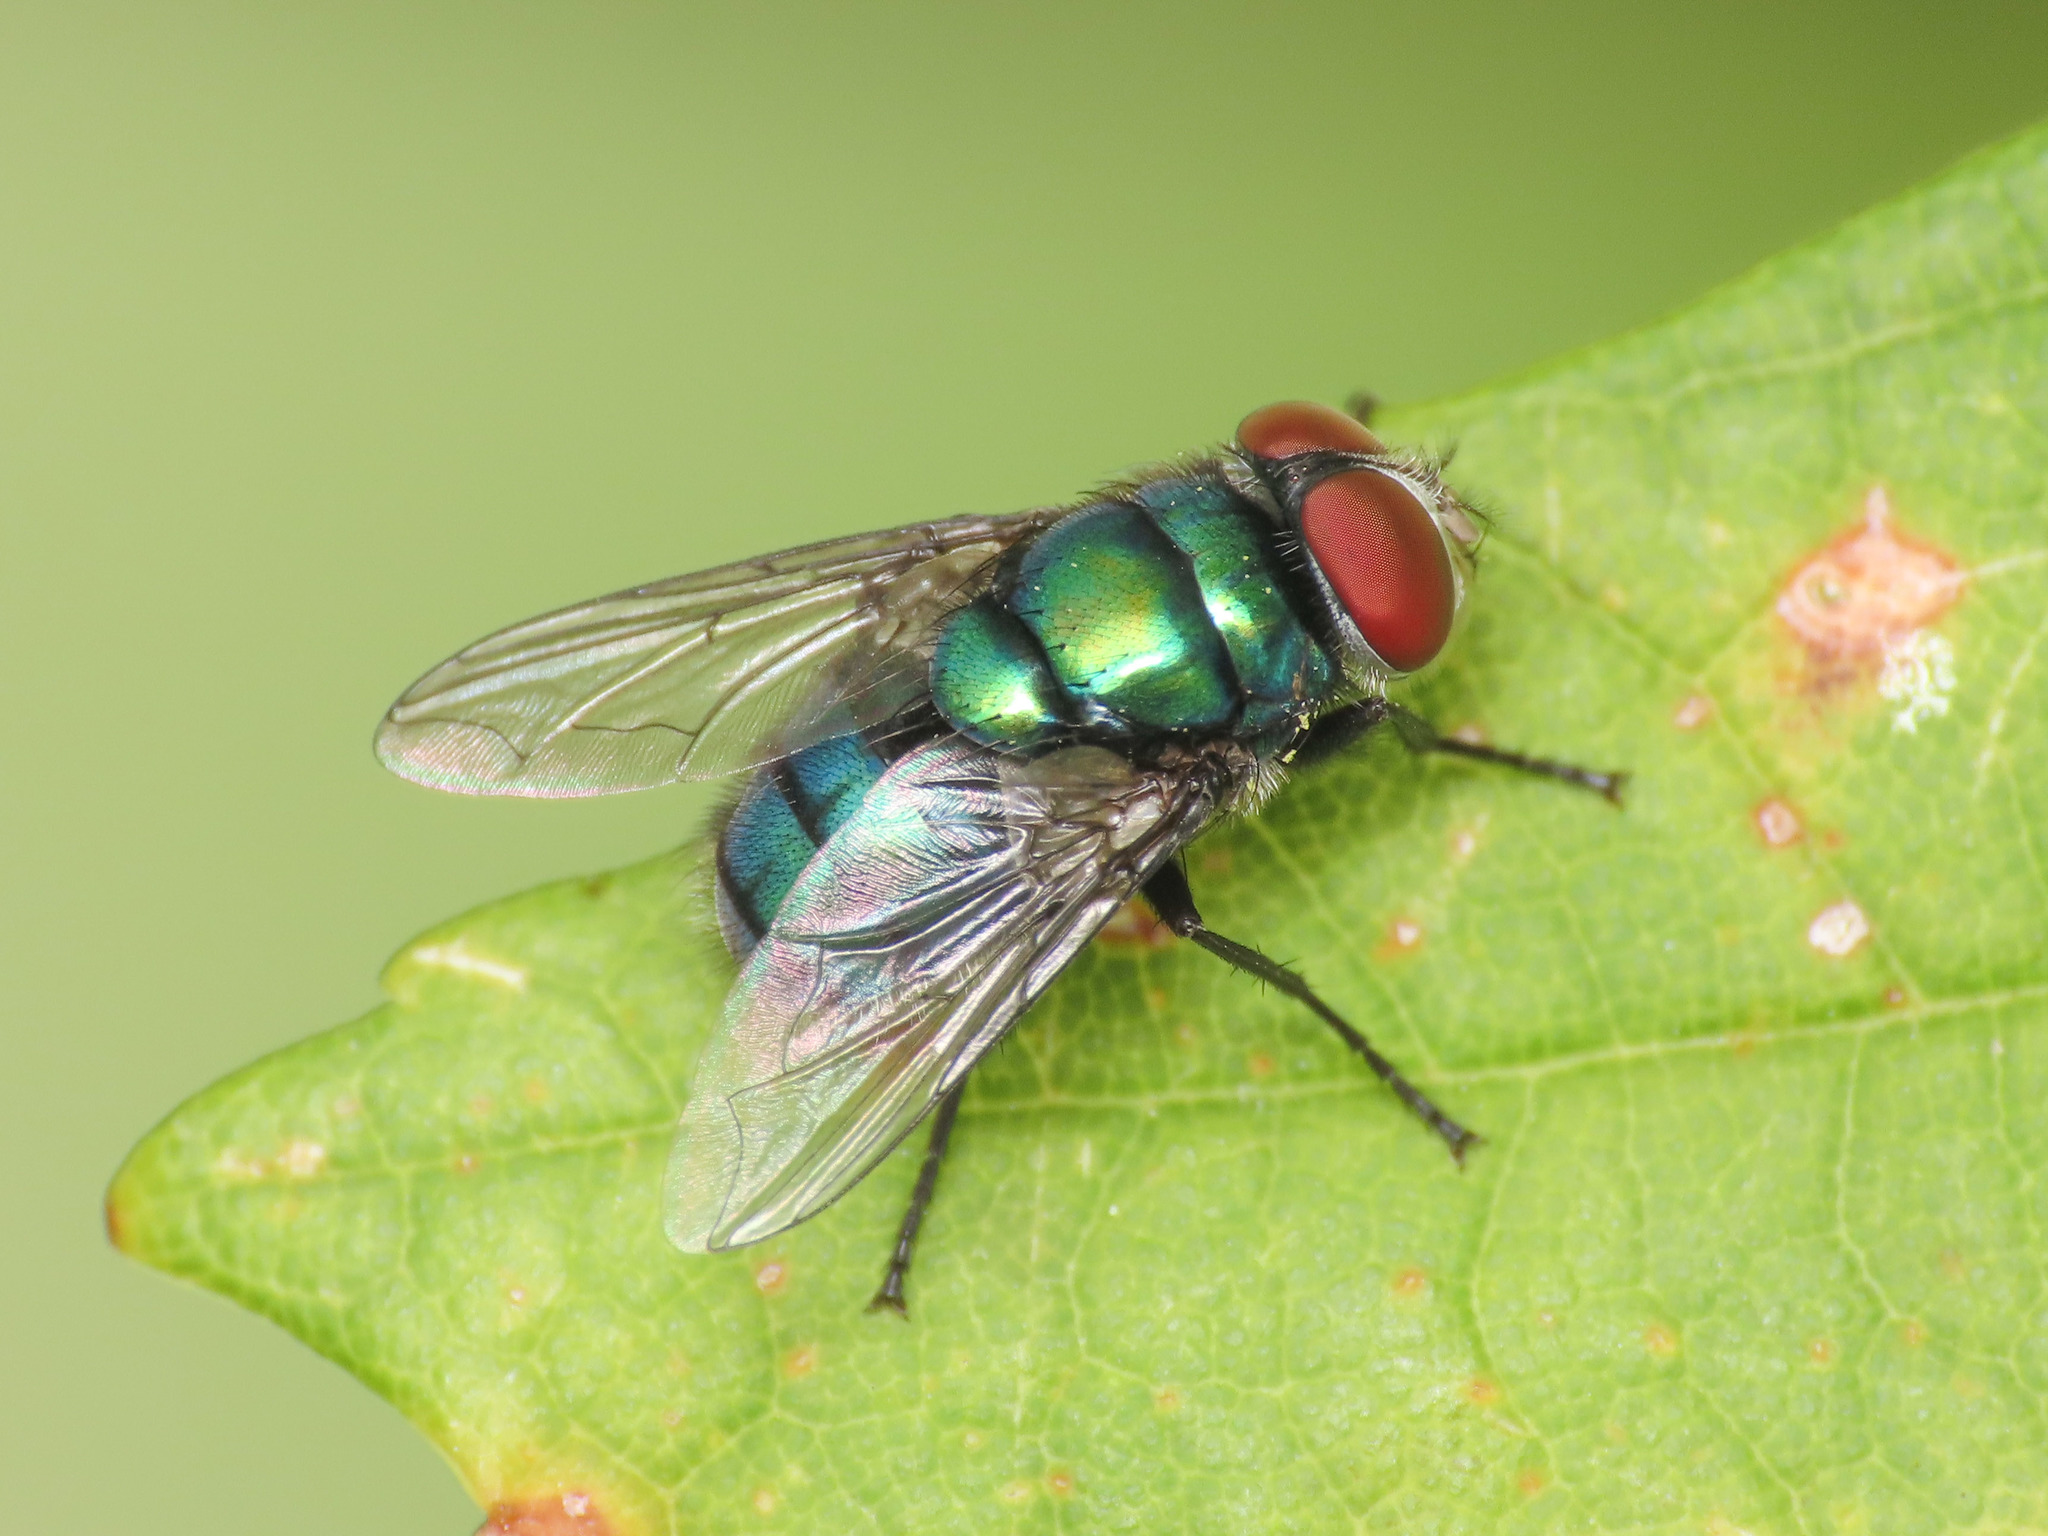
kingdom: Animalia
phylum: Arthropoda
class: Insecta
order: Diptera
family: Calliphoridae
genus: Chrysomya
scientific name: Chrysomya albiceps
